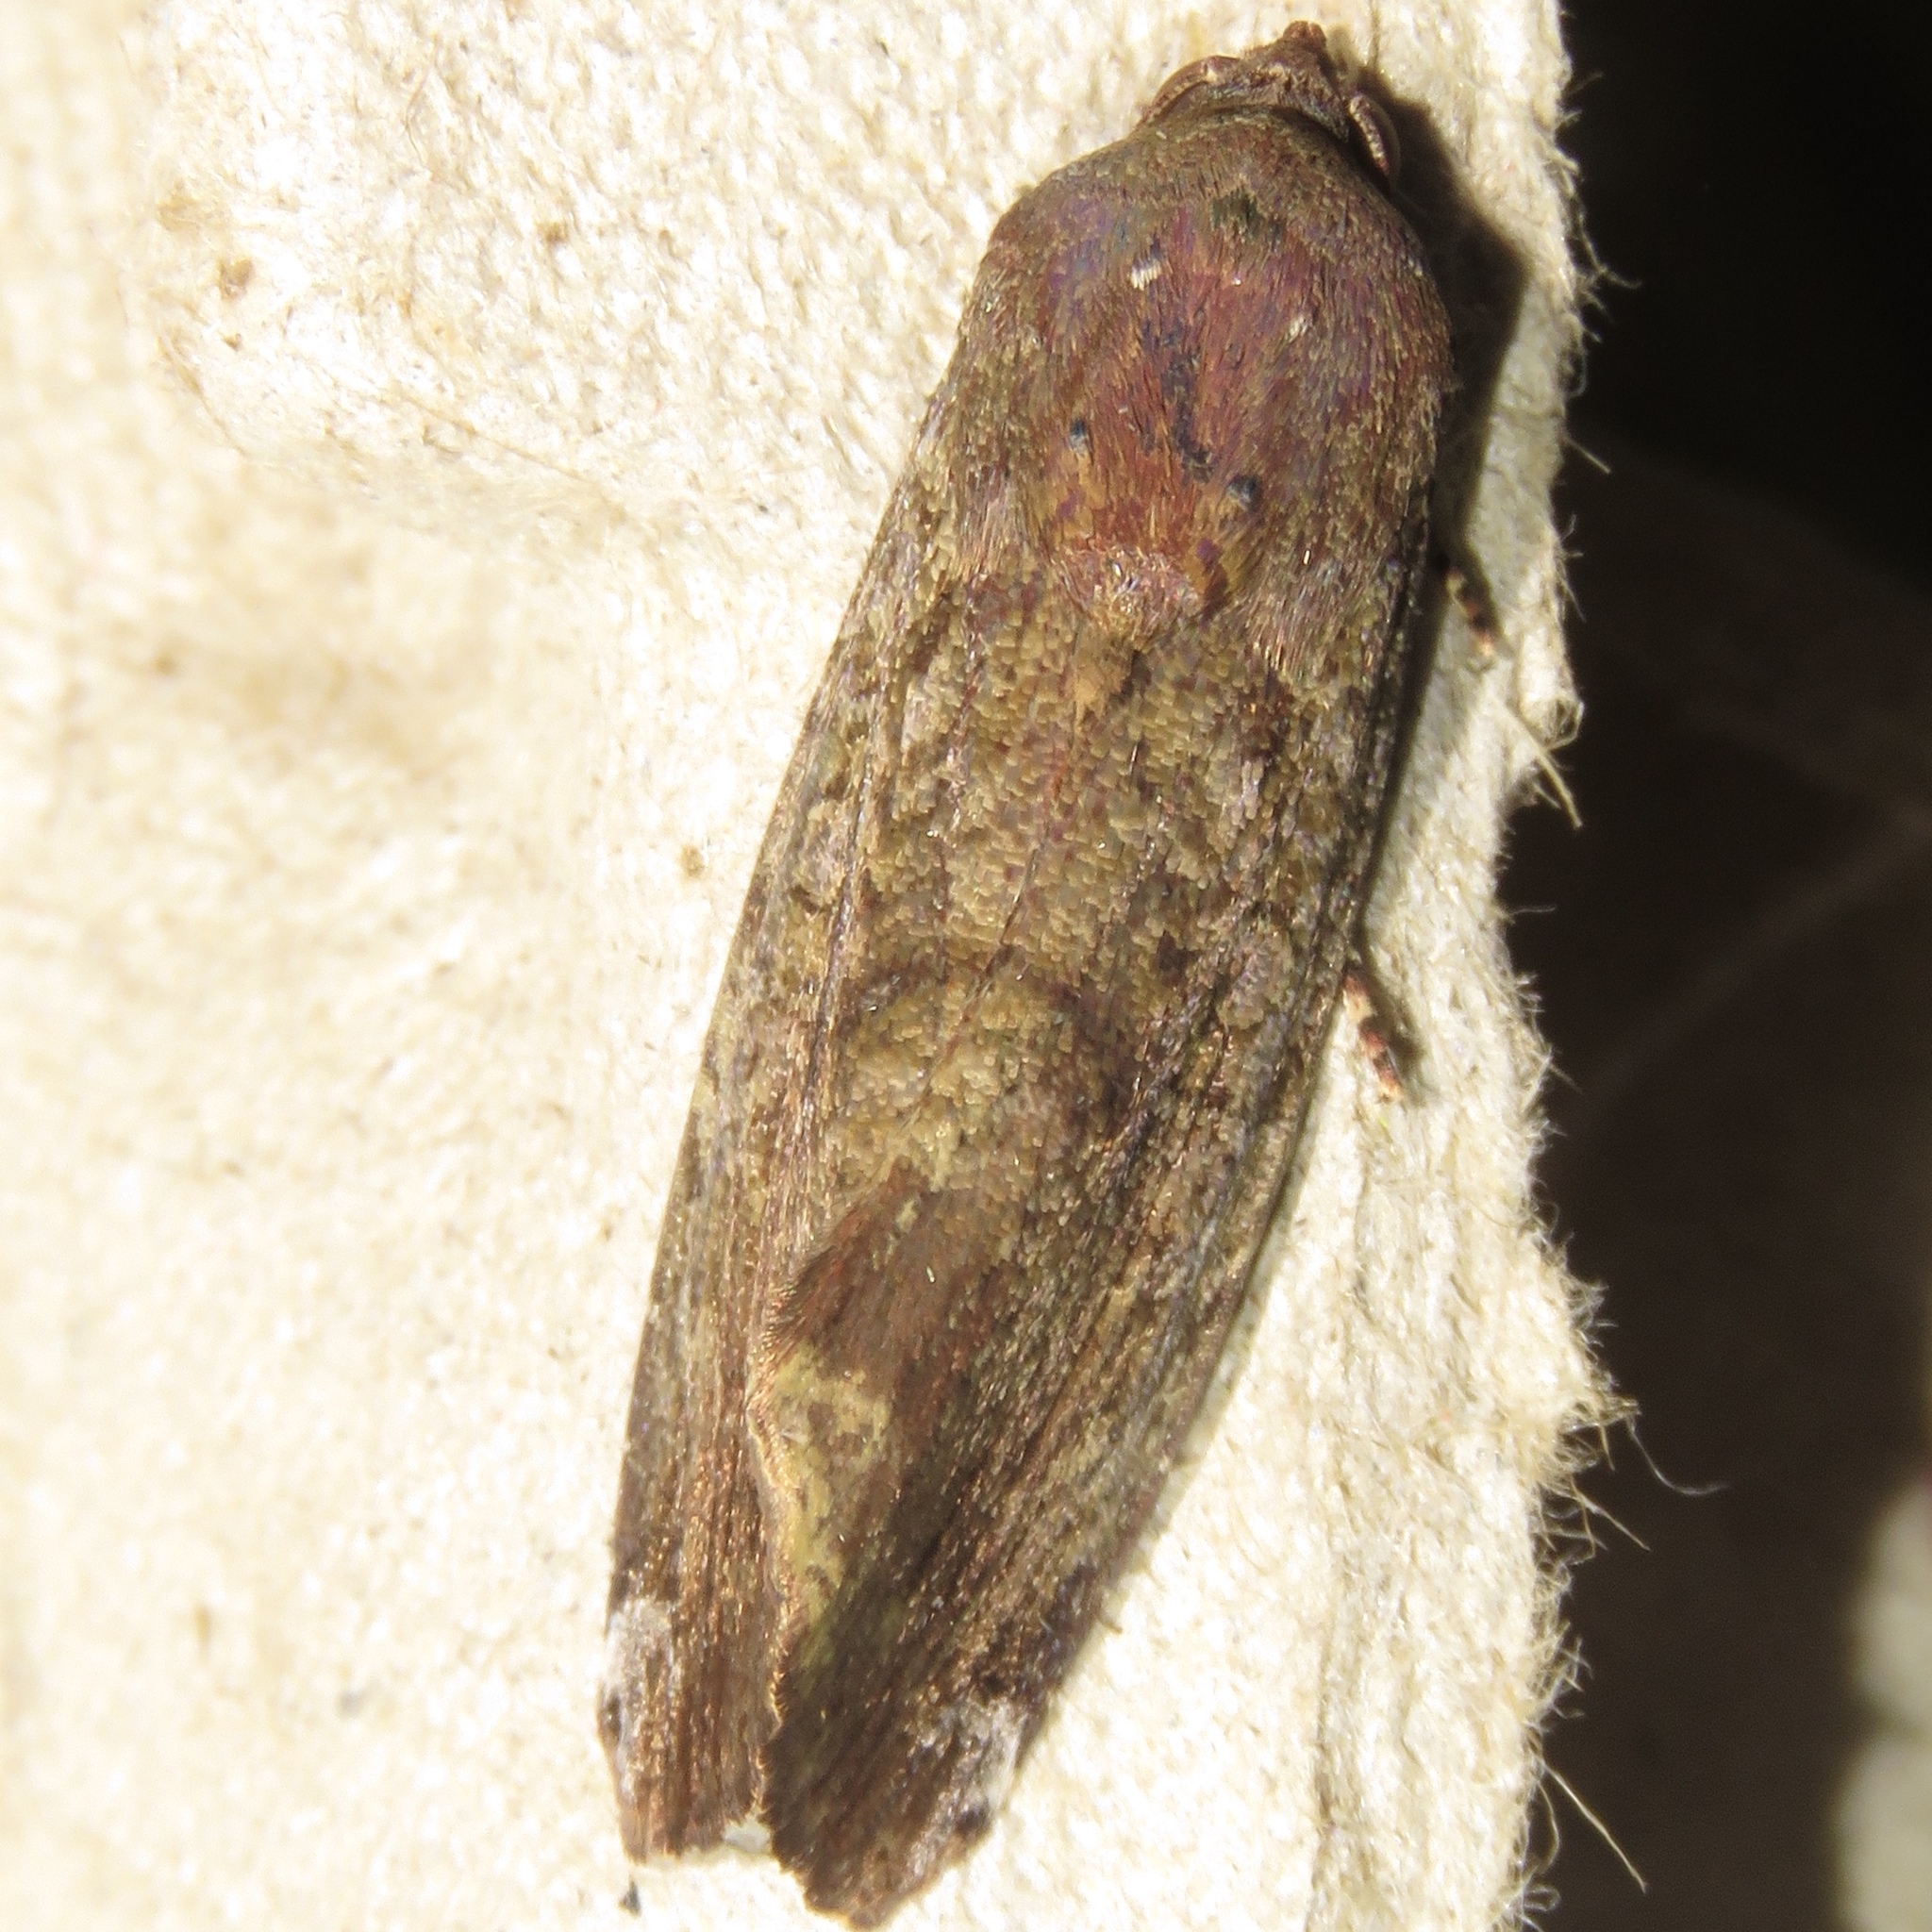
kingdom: Animalia
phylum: Arthropoda
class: Insecta
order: Lepidoptera
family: Noctuidae
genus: Magusa
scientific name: Magusa divaricata
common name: Orb narrow-winged moth
